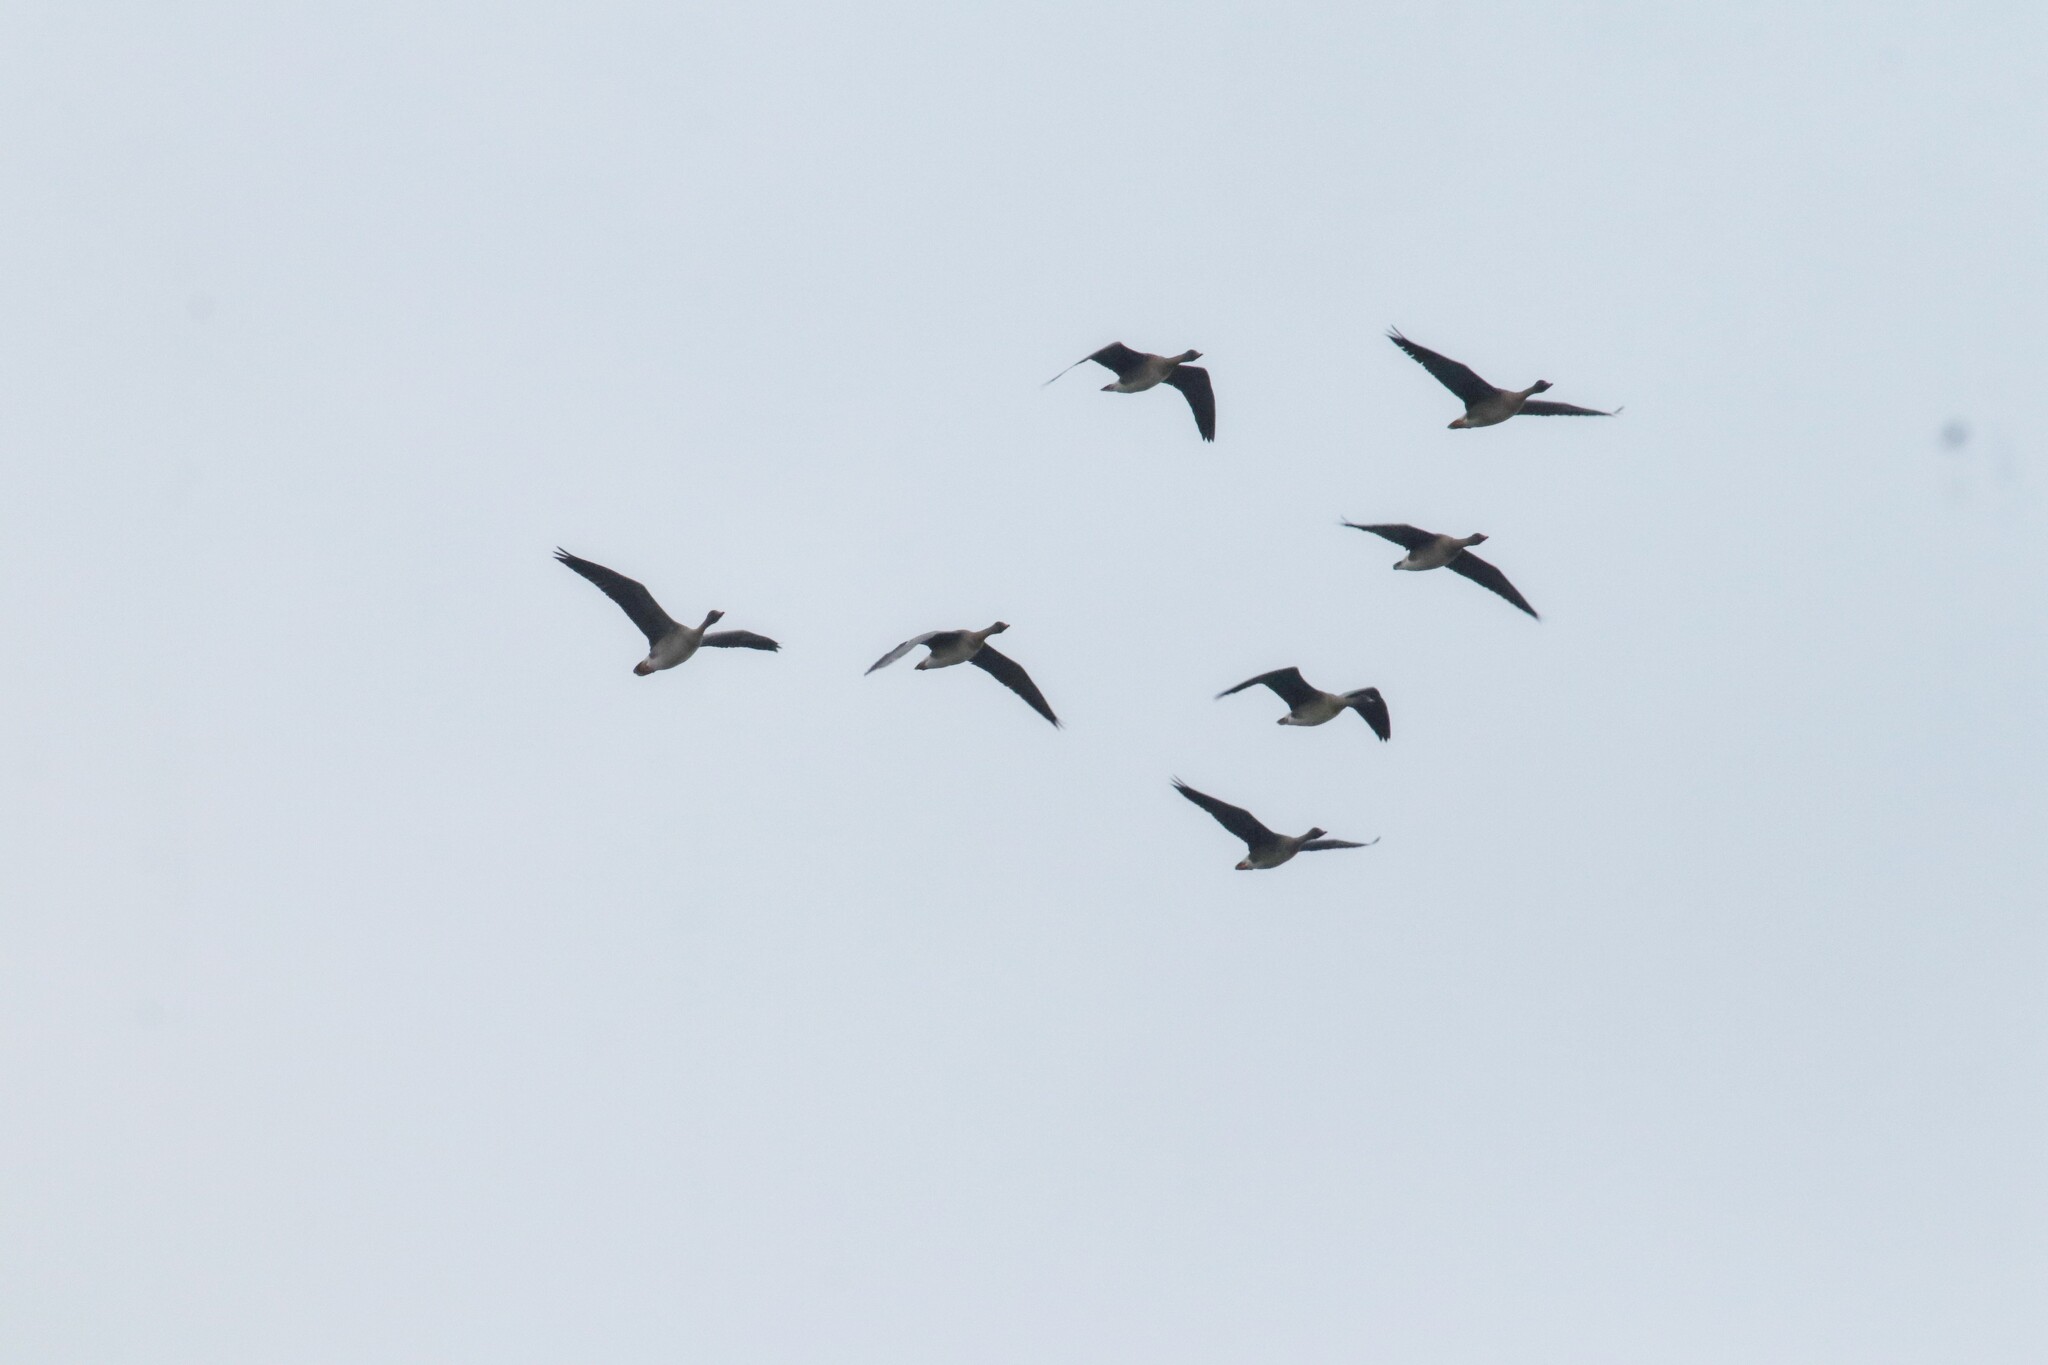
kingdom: Animalia
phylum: Chordata
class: Aves
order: Anseriformes
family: Anatidae
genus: Anser
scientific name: Anser serrirostris
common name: Tundra bean goose
